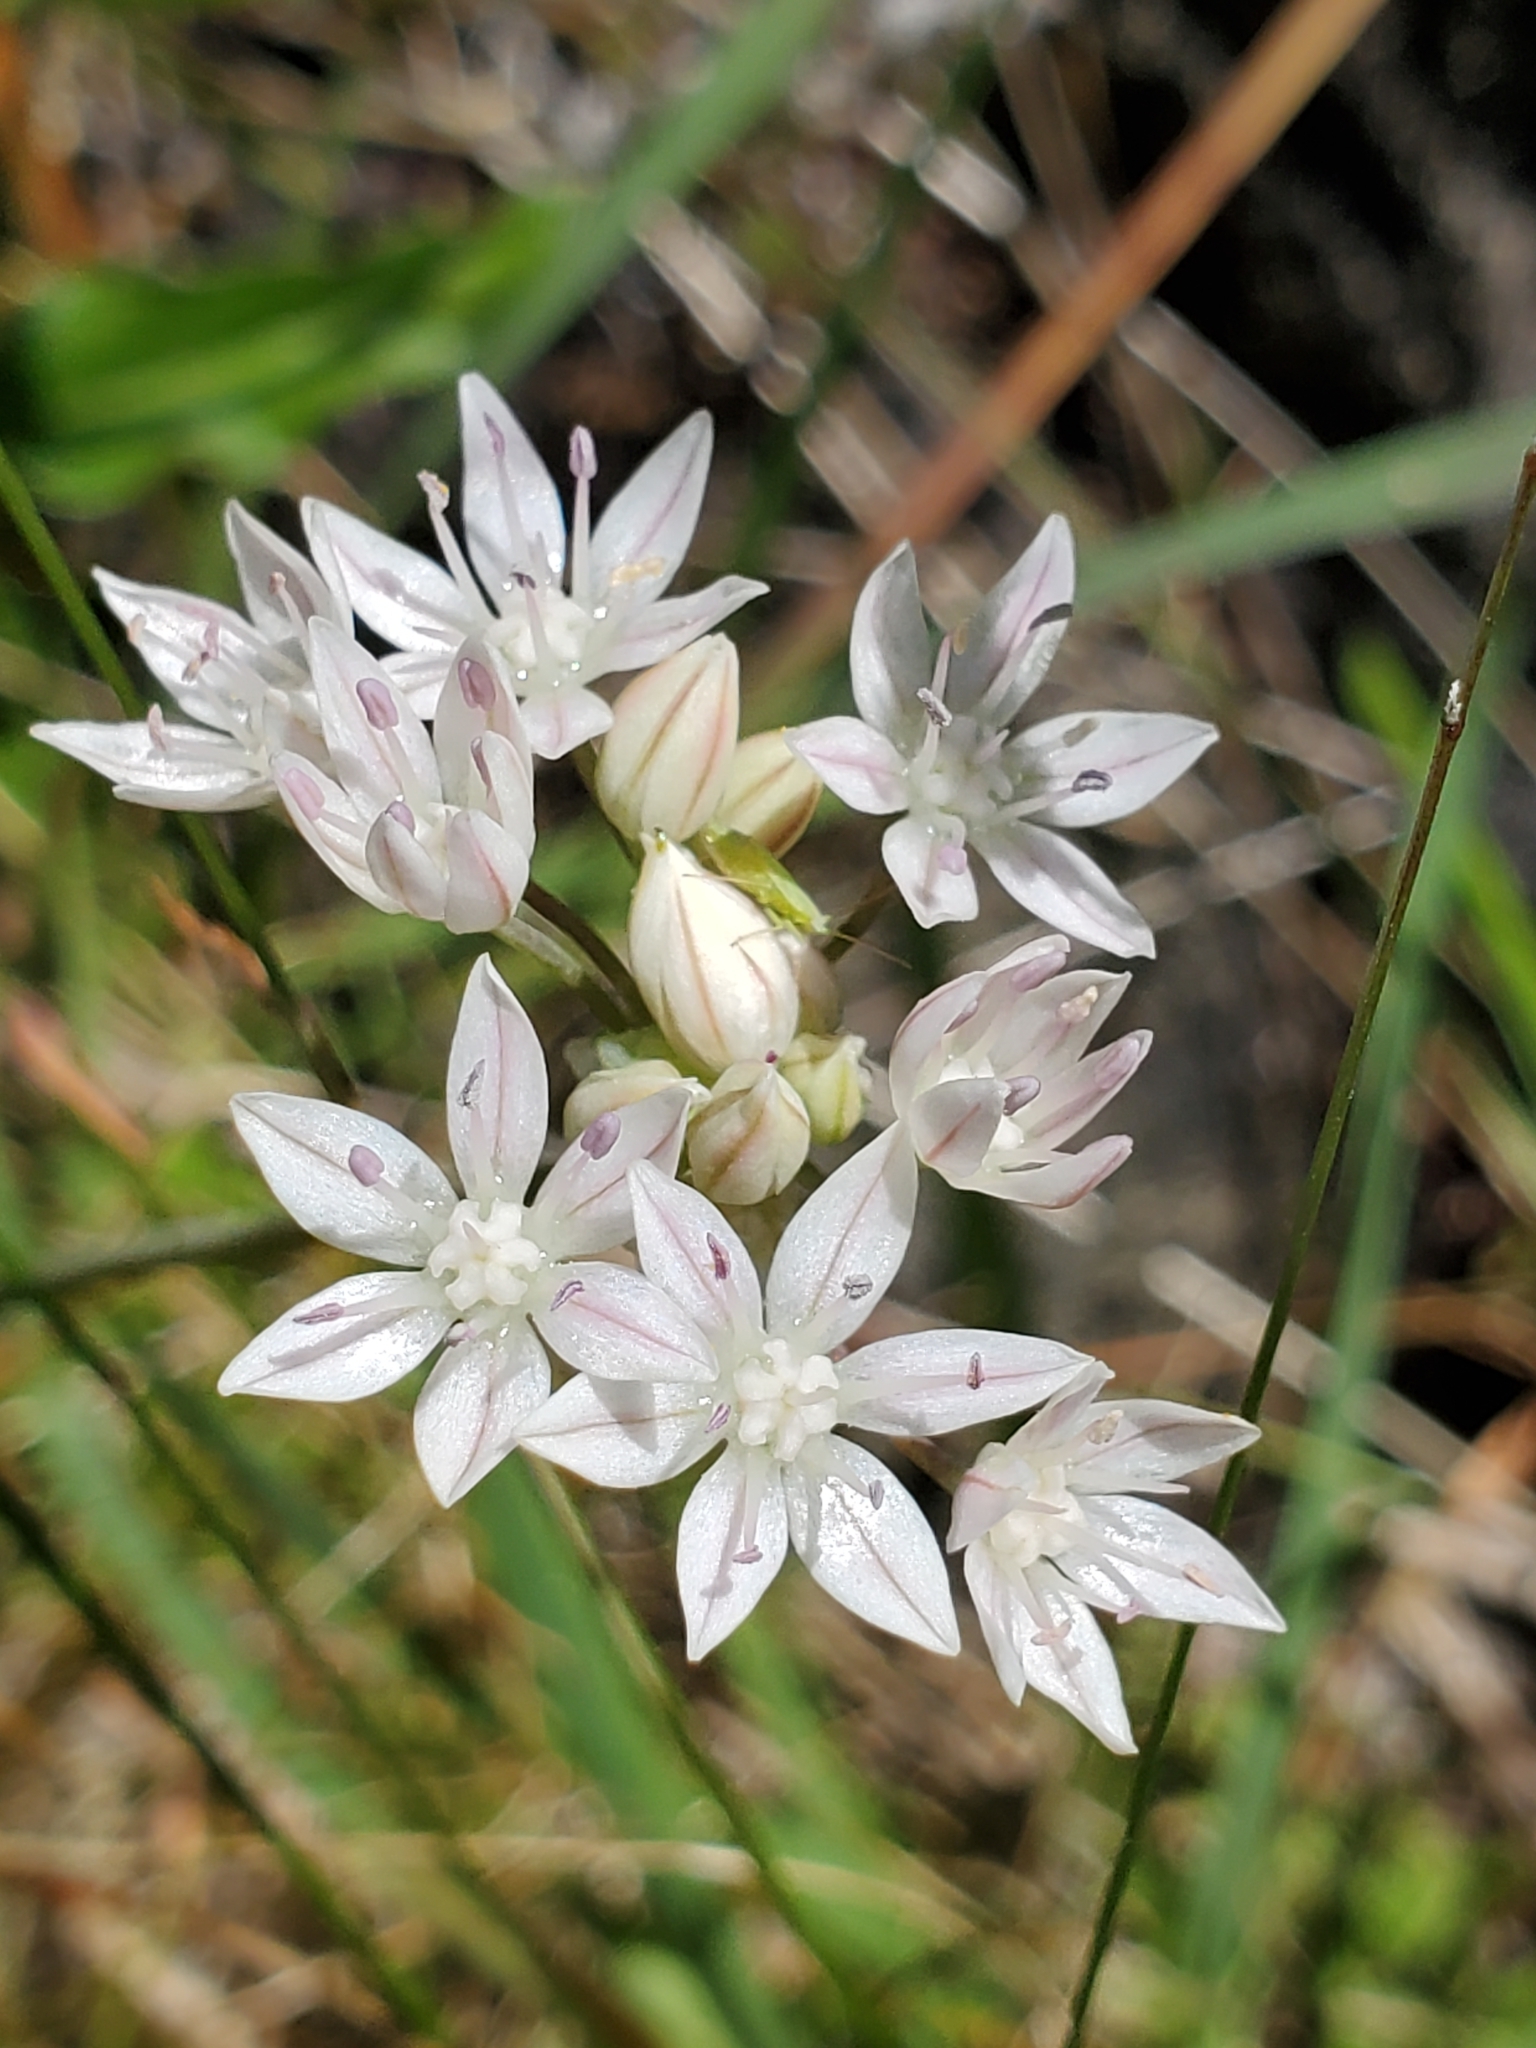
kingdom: Plantae
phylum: Tracheophyta
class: Liliopsida
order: Asparagales
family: Amaryllidaceae
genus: Allium
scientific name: Allium amplectens
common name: Narrow-leaved onion
